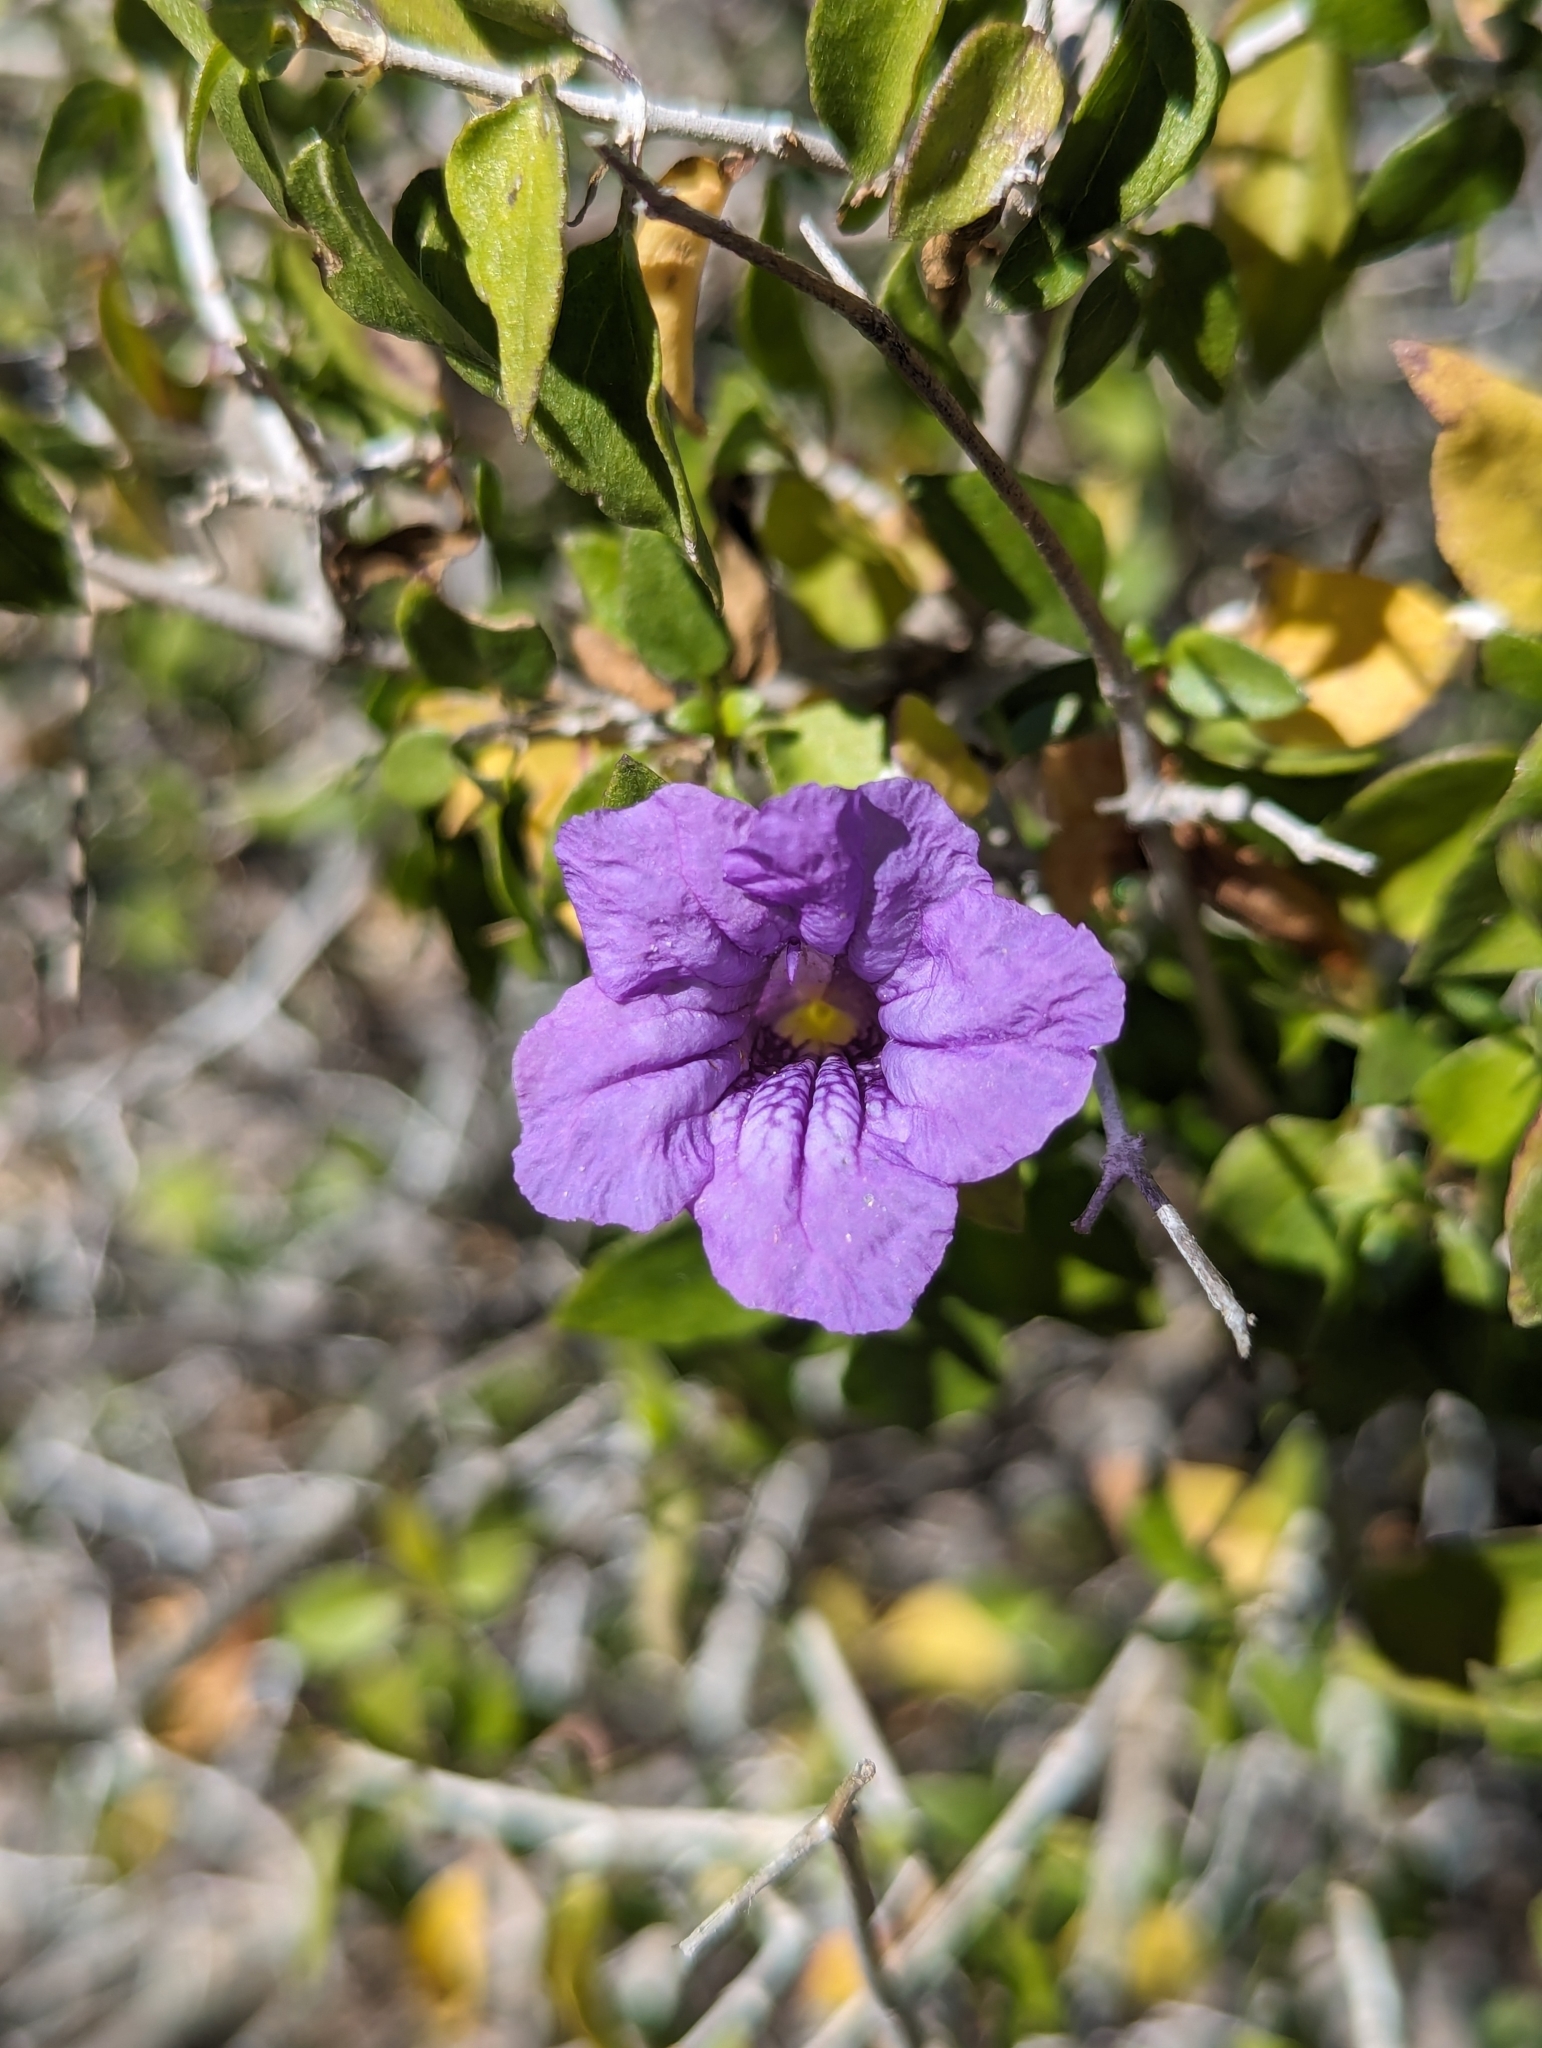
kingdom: Plantae
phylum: Tracheophyta
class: Magnoliopsida
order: Lamiales
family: Acanthaceae
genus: Ruellia
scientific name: Ruellia californica
